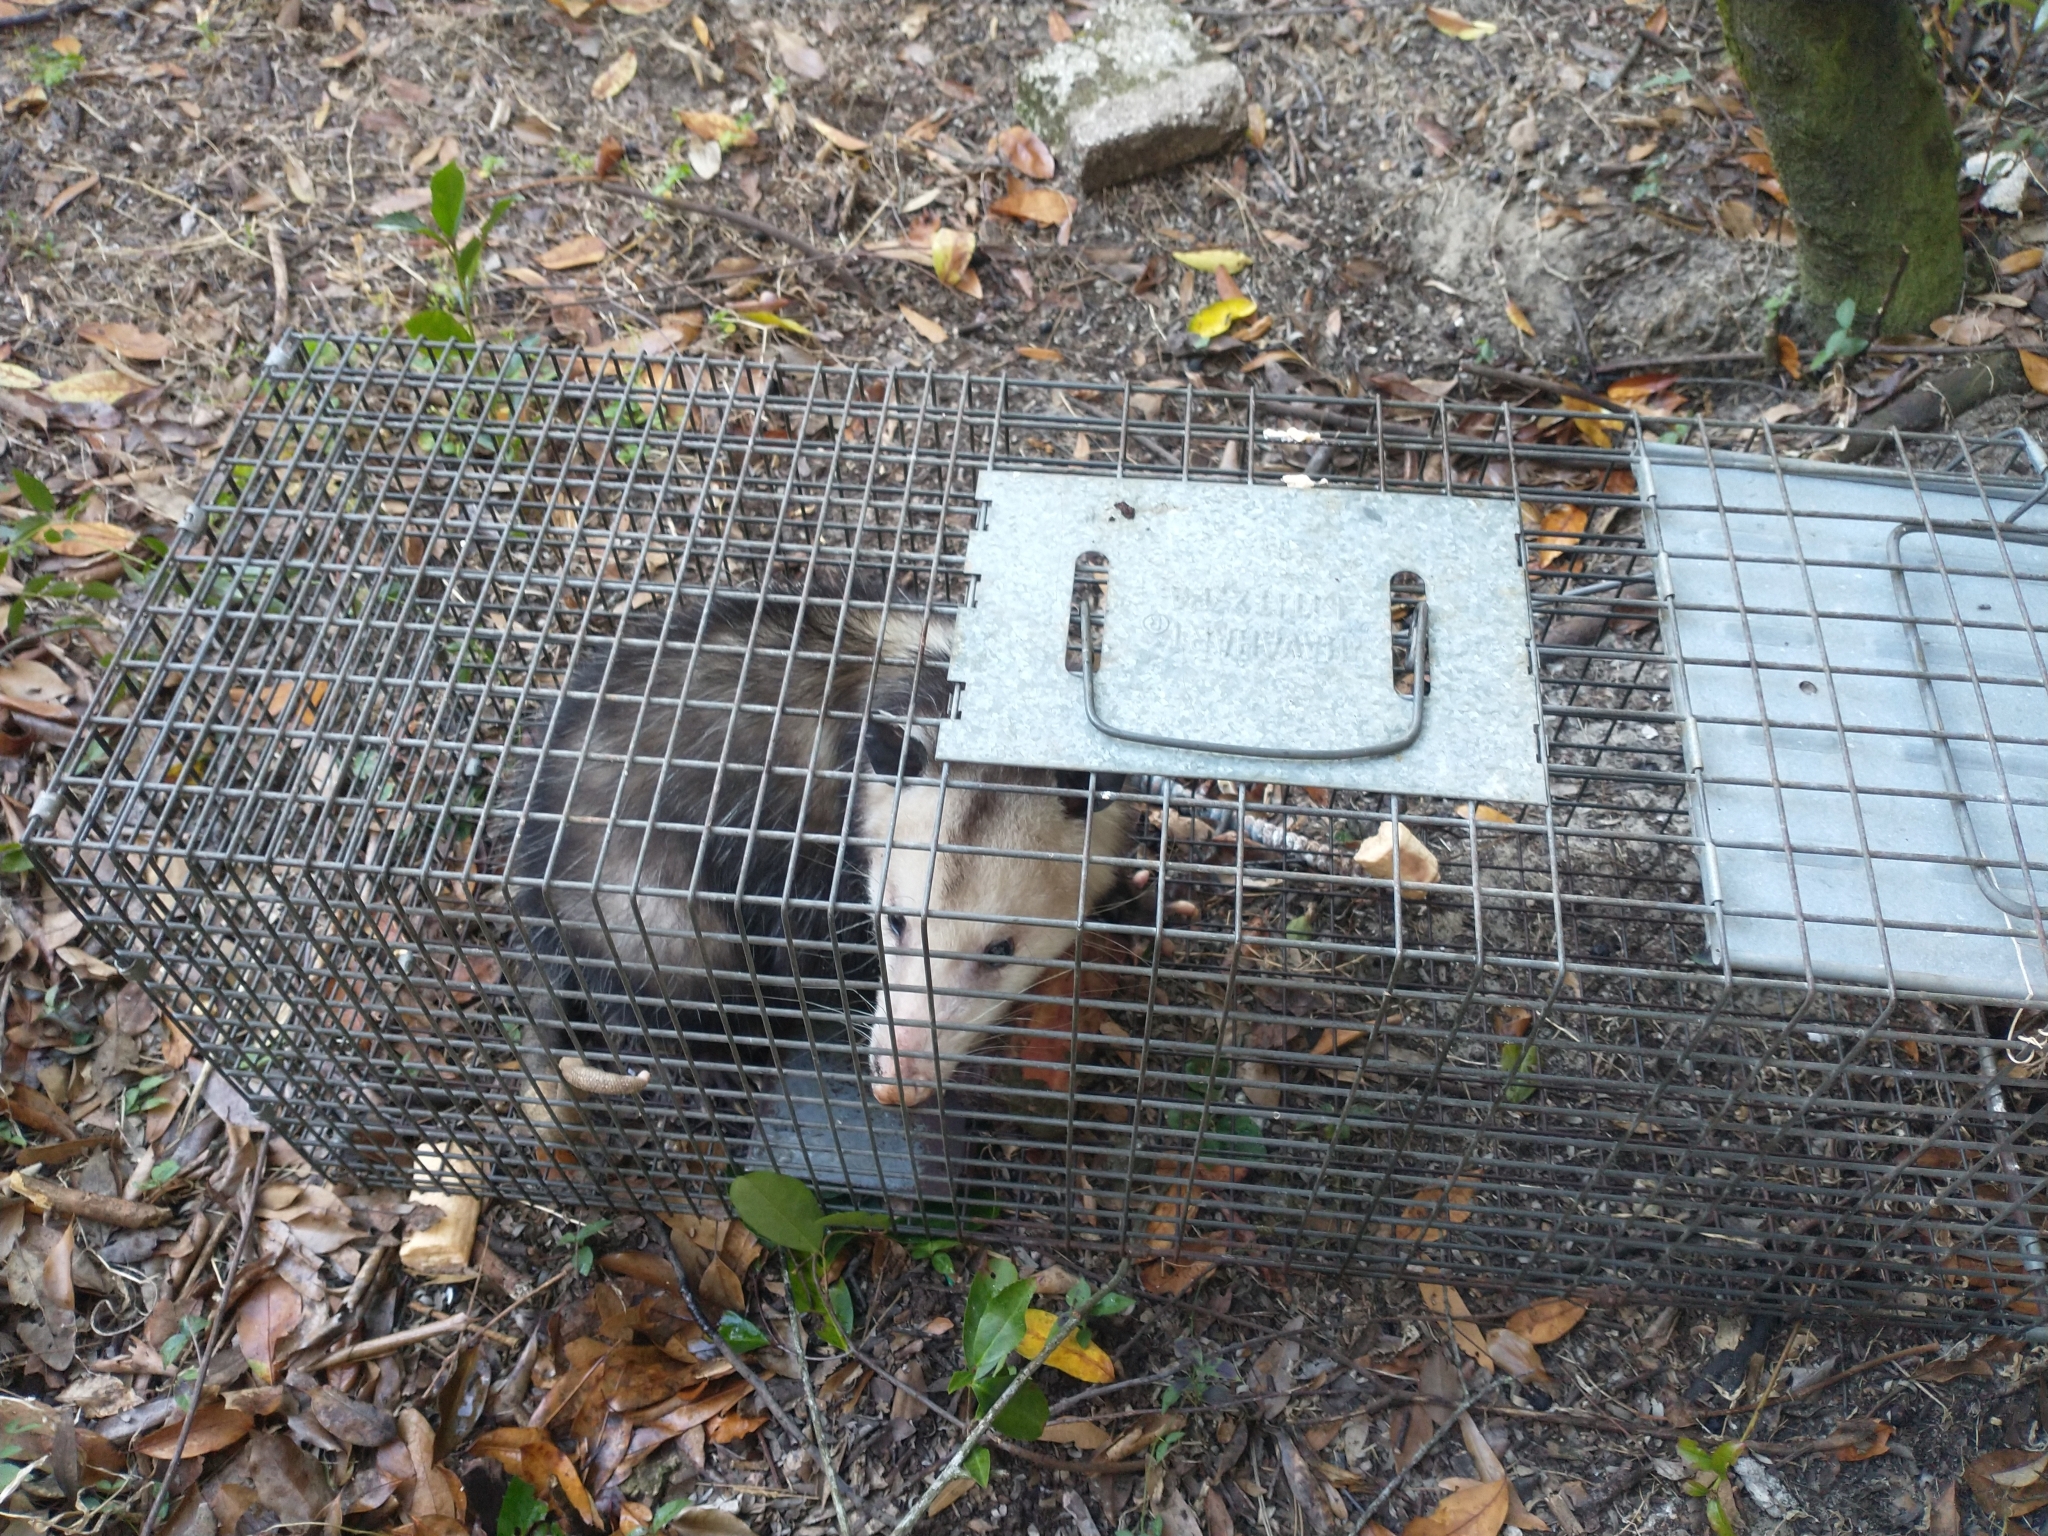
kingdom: Animalia
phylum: Chordata
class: Mammalia
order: Didelphimorphia
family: Didelphidae
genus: Didelphis
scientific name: Didelphis virginiana
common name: Virginia opossum
